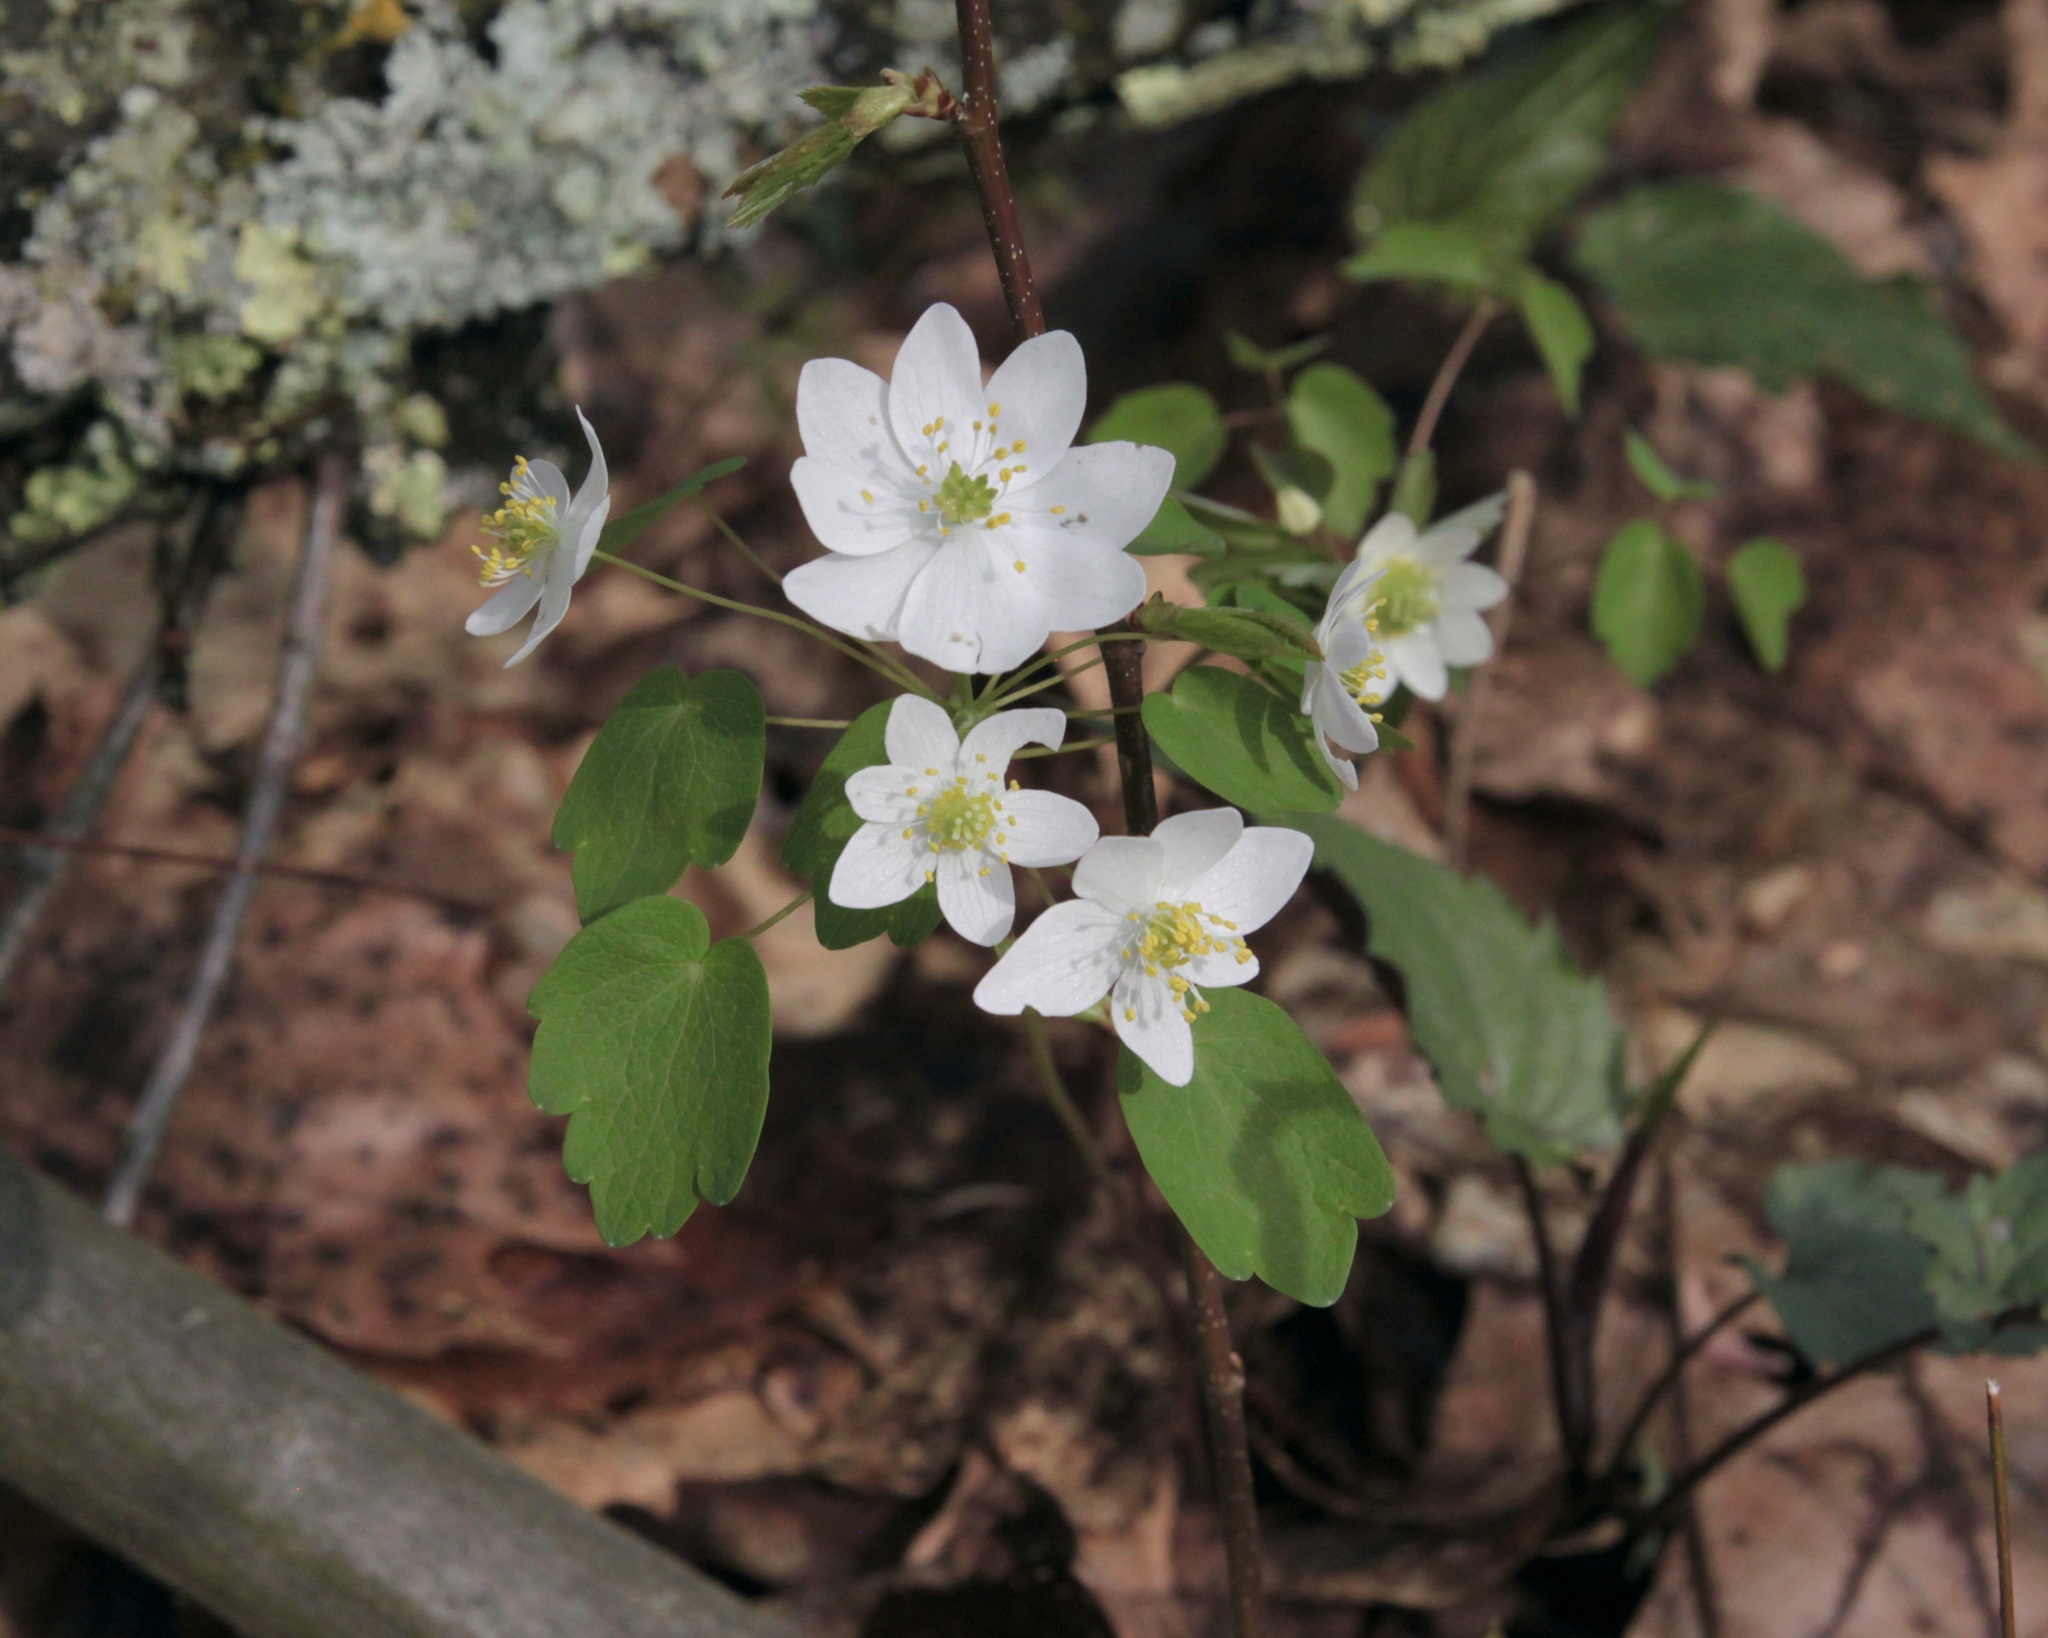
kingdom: Plantae
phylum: Tracheophyta
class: Magnoliopsida
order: Ranunculales
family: Ranunculaceae
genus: Thalictrum
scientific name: Thalictrum thalictroides
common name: Rue-anemone
